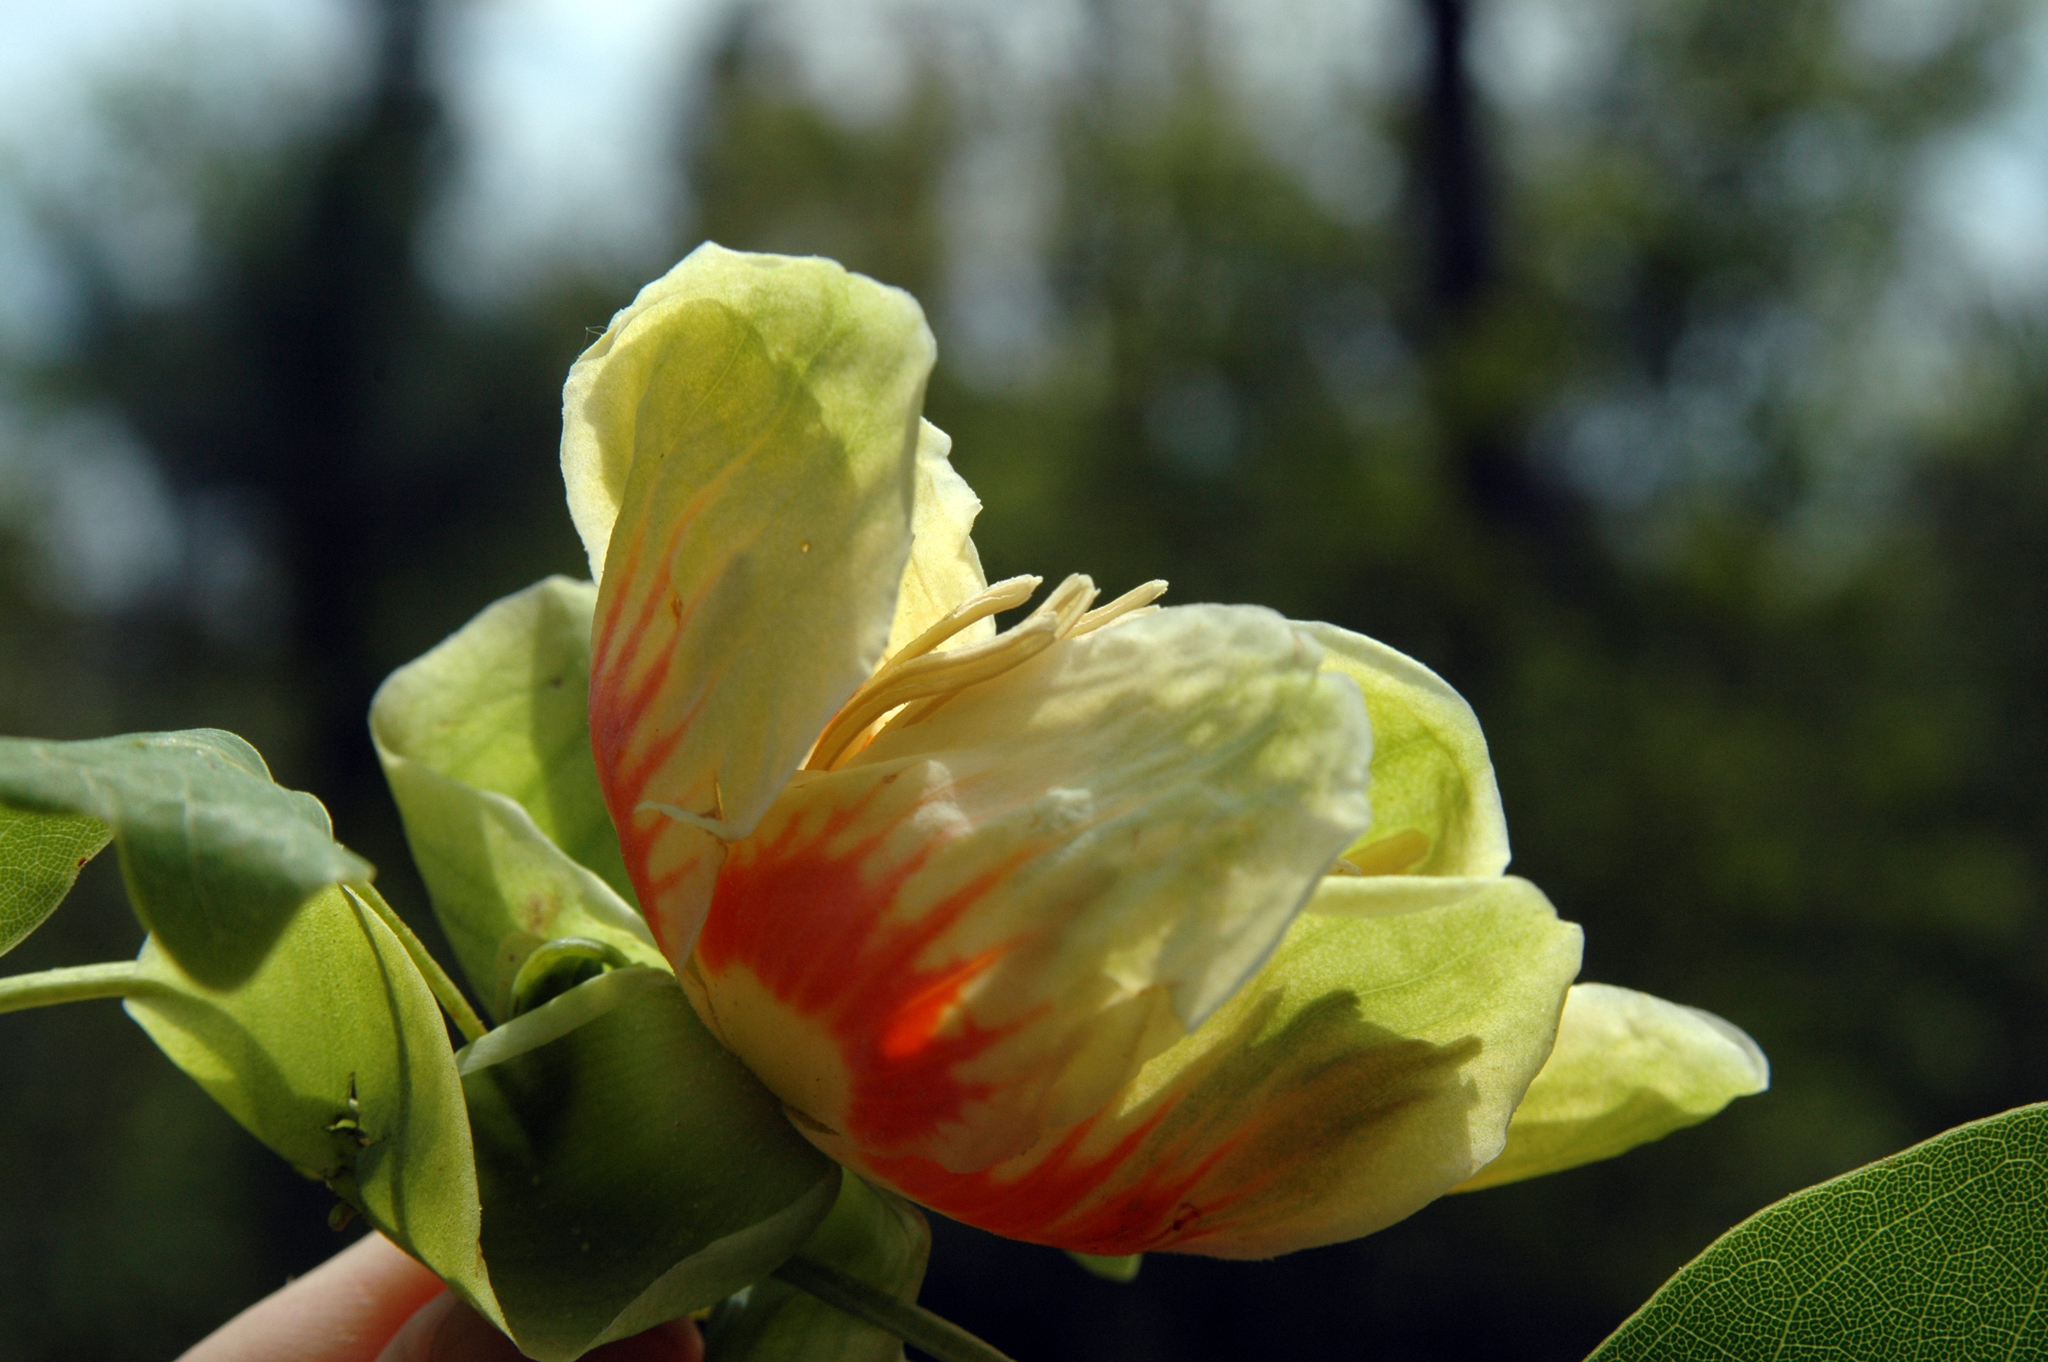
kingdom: Plantae
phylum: Tracheophyta
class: Magnoliopsida
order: Magnoliales
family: Magnoliaceae
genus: Liriodendron
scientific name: Liriodendron tulipifera
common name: Tulip tree
